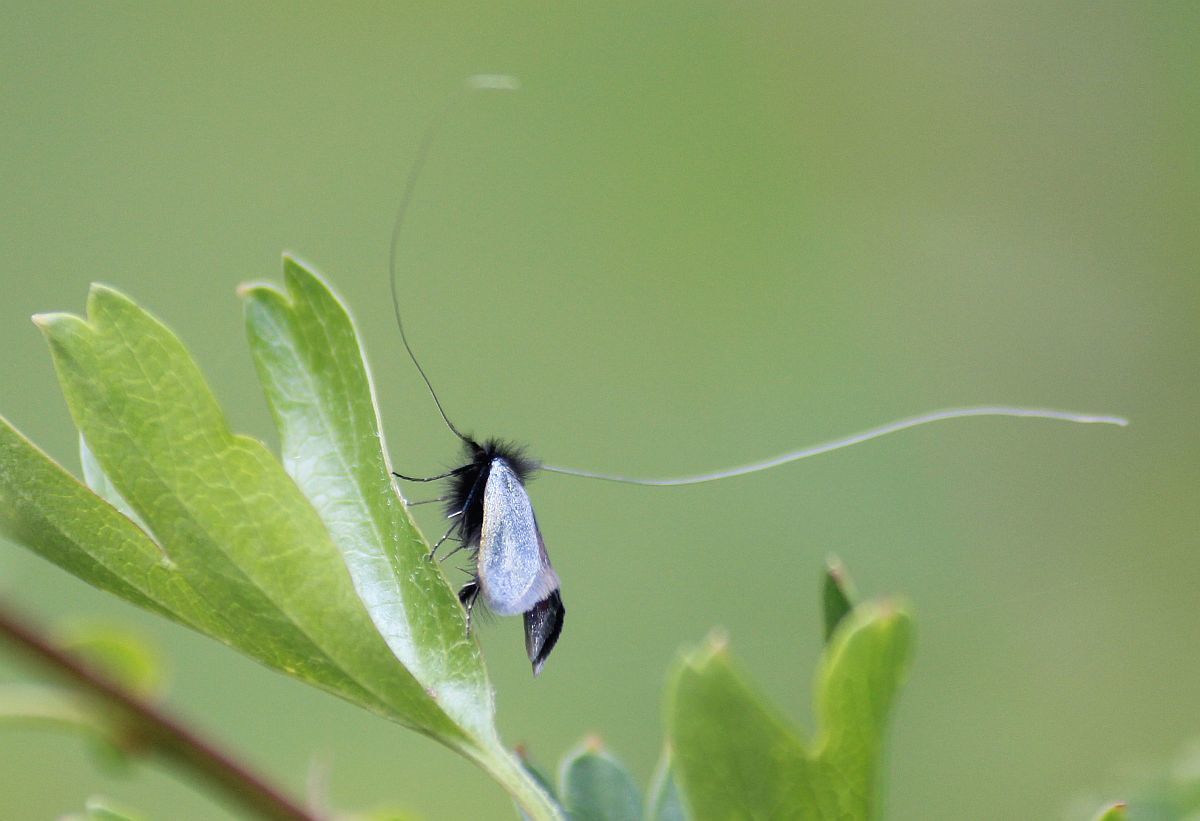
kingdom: Animalia
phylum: Arthropoda
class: Insecta
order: Lepidoptera
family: Adelidae
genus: Adela
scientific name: Adela viridella
